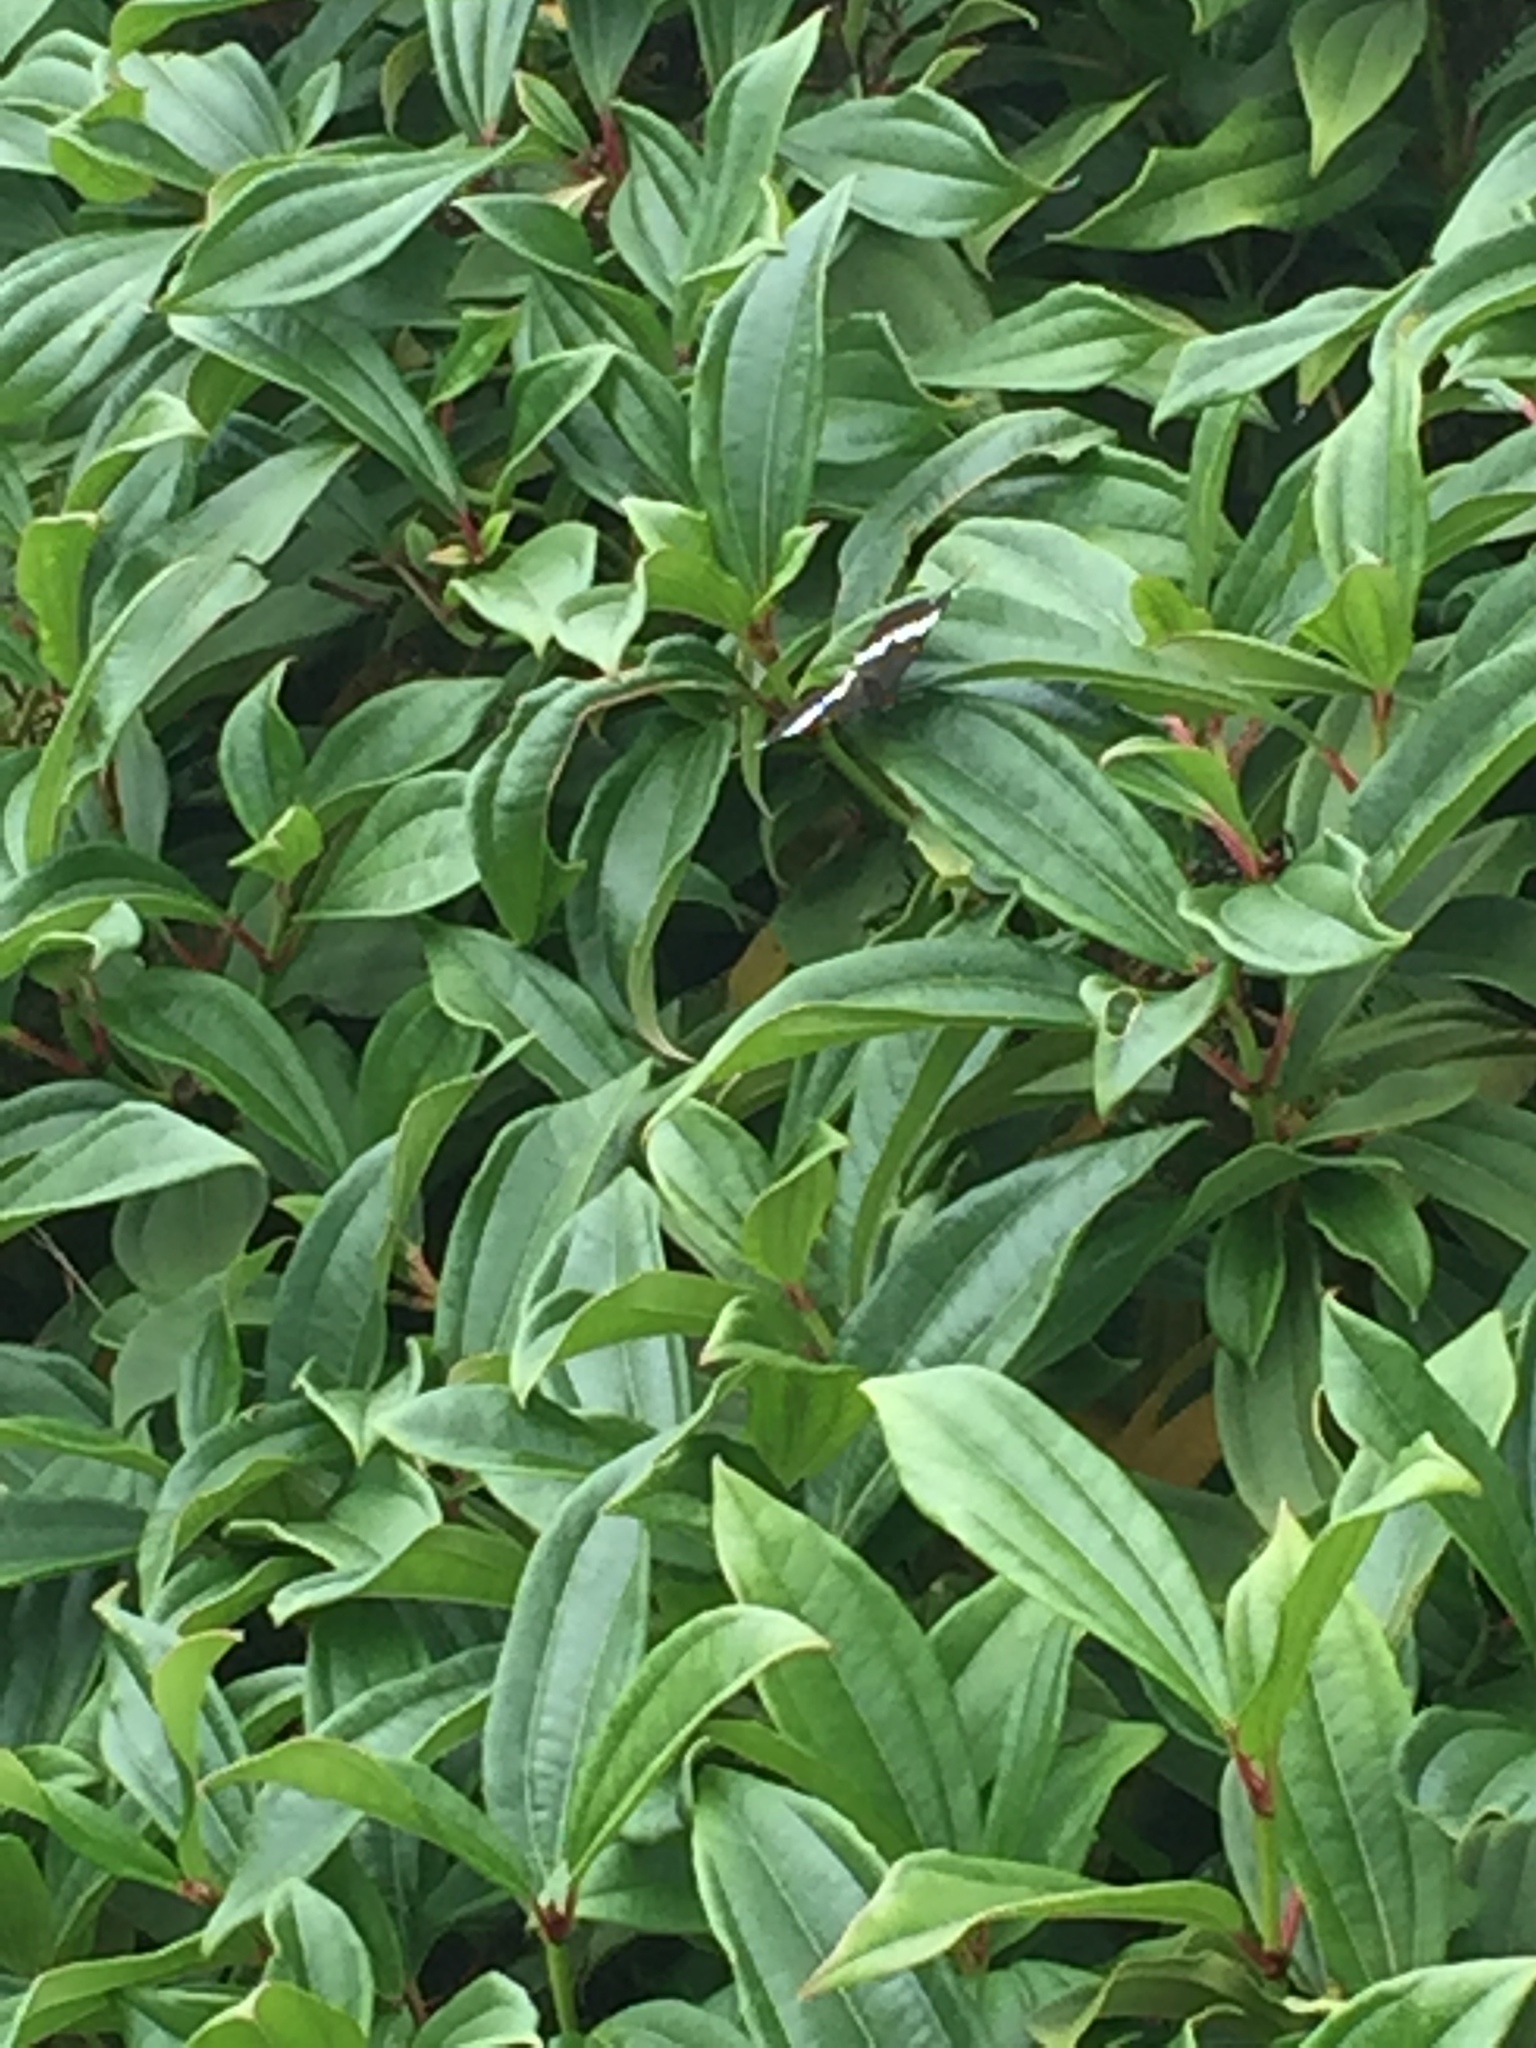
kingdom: Animalia
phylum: Arthropoda
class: Insecta
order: Lepidoptera
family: Nymphalidae
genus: Limenitis
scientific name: Limenitis lorquini
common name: Lorquin's admiral
